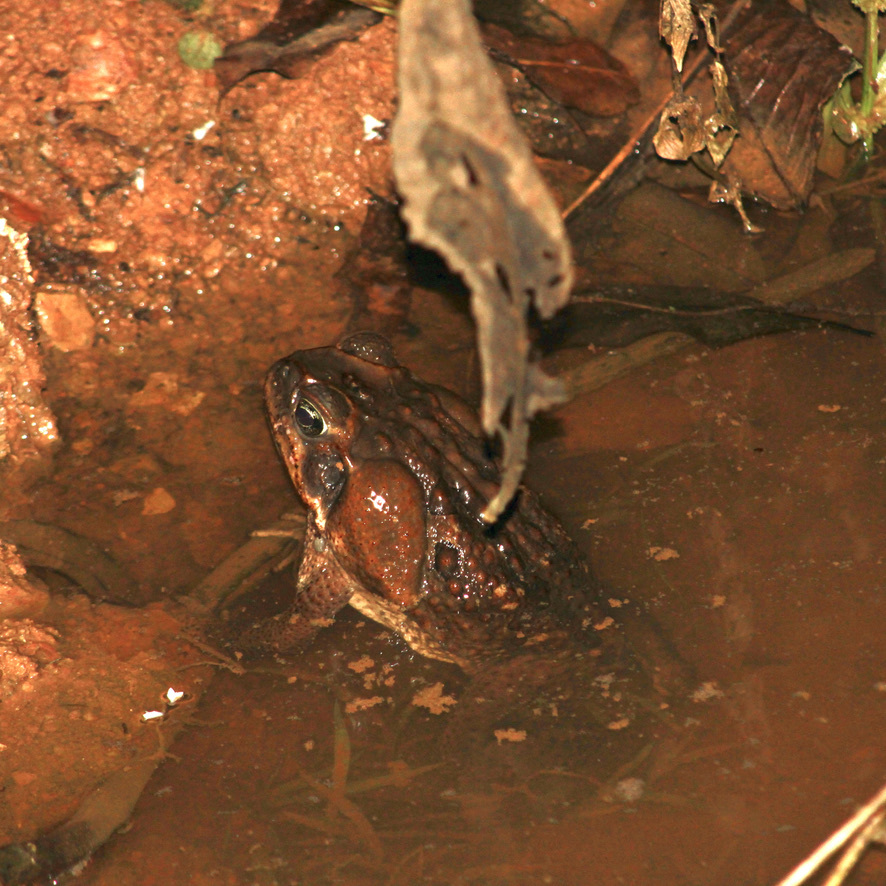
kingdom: Animalia
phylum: Chordata
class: Amphibia
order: Anura
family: Bufonidae
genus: Rhinella
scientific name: Rhinella marina
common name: Cane toad
